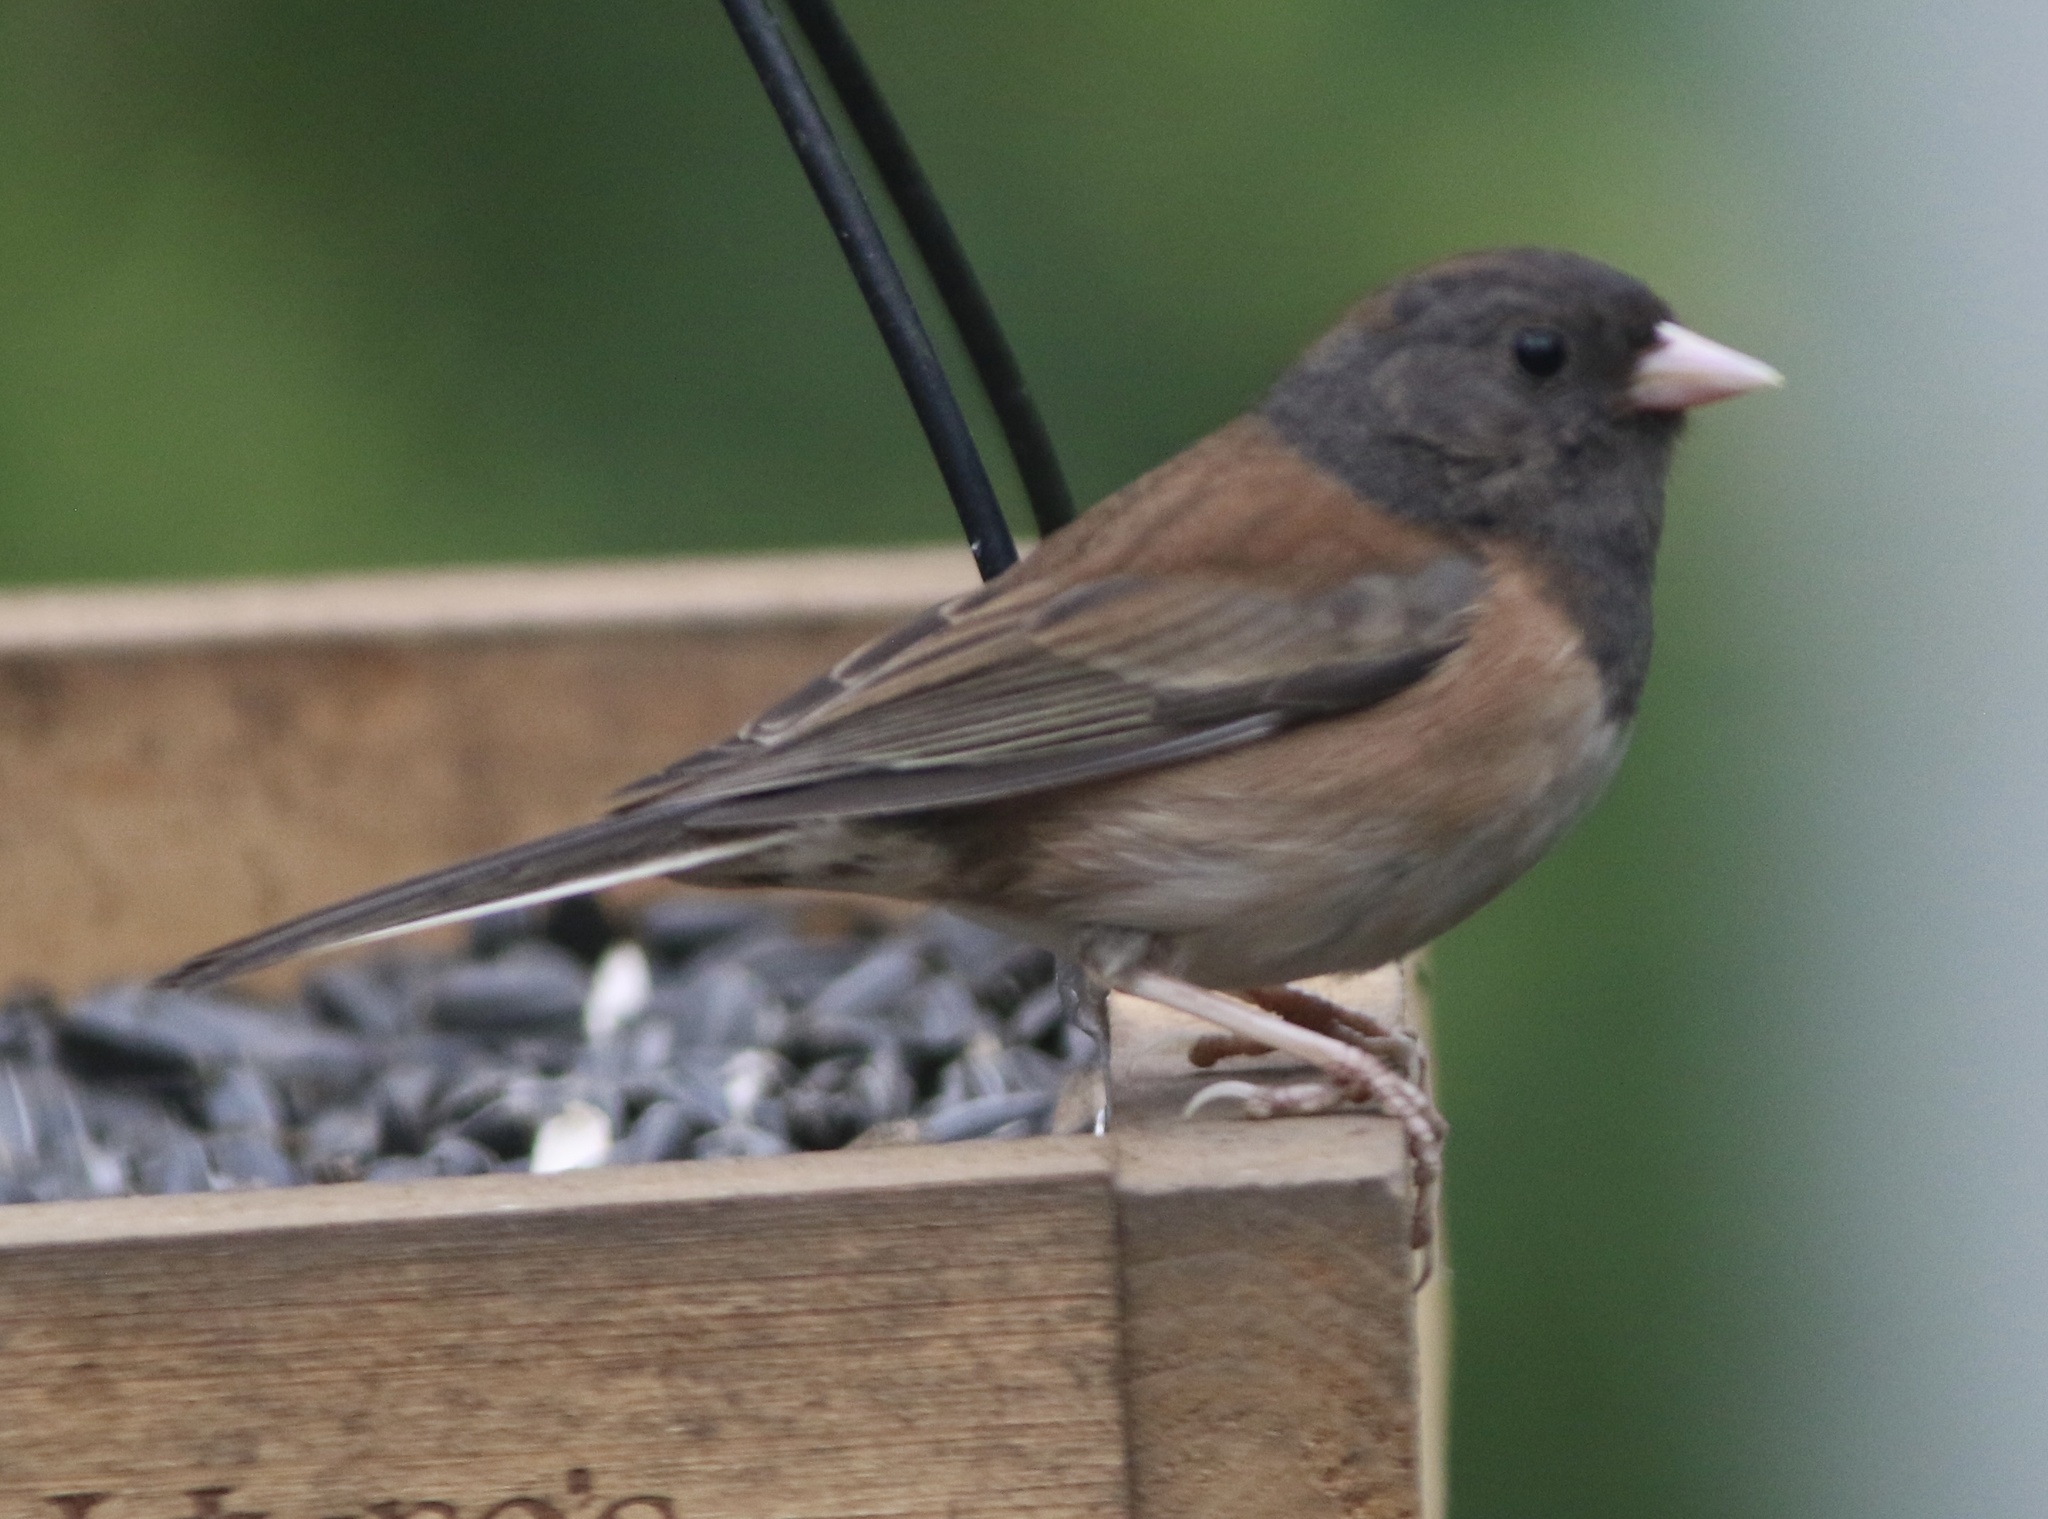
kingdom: Animalia
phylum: Chordata
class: Aves
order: Passeriformes
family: Passerellidae
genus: Junco
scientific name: Junco hyemalis
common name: Dark-eyed junco
